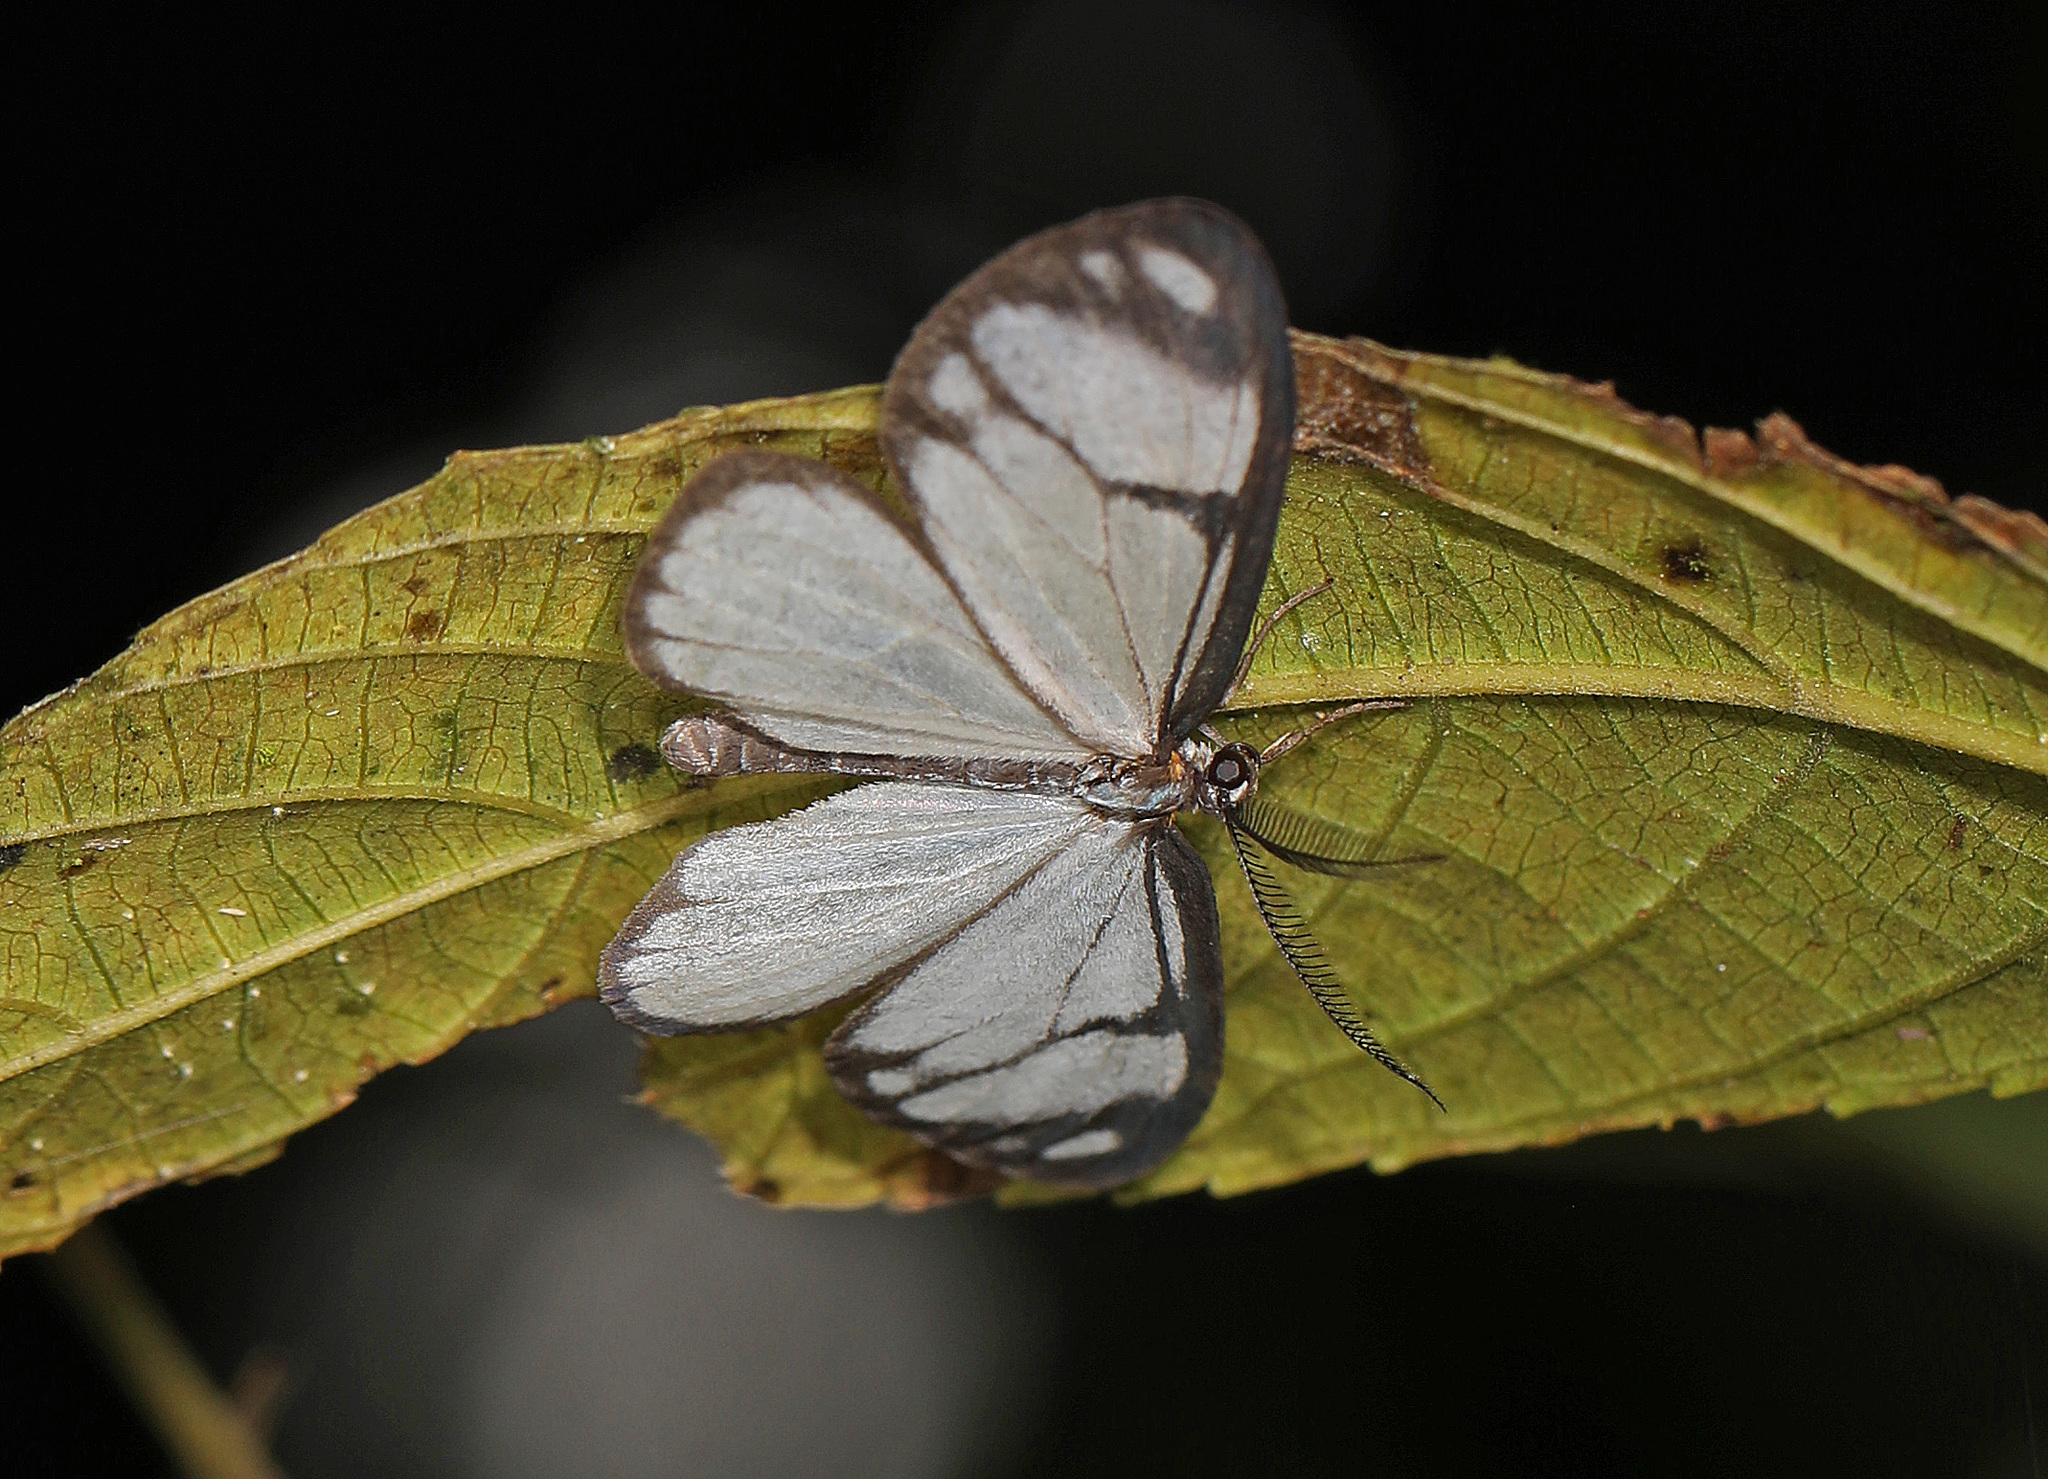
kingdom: Animalia
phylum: Arthropoda
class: Insecta
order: Lepidoptera
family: Notodontidae
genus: Isostyla
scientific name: Isostyla
